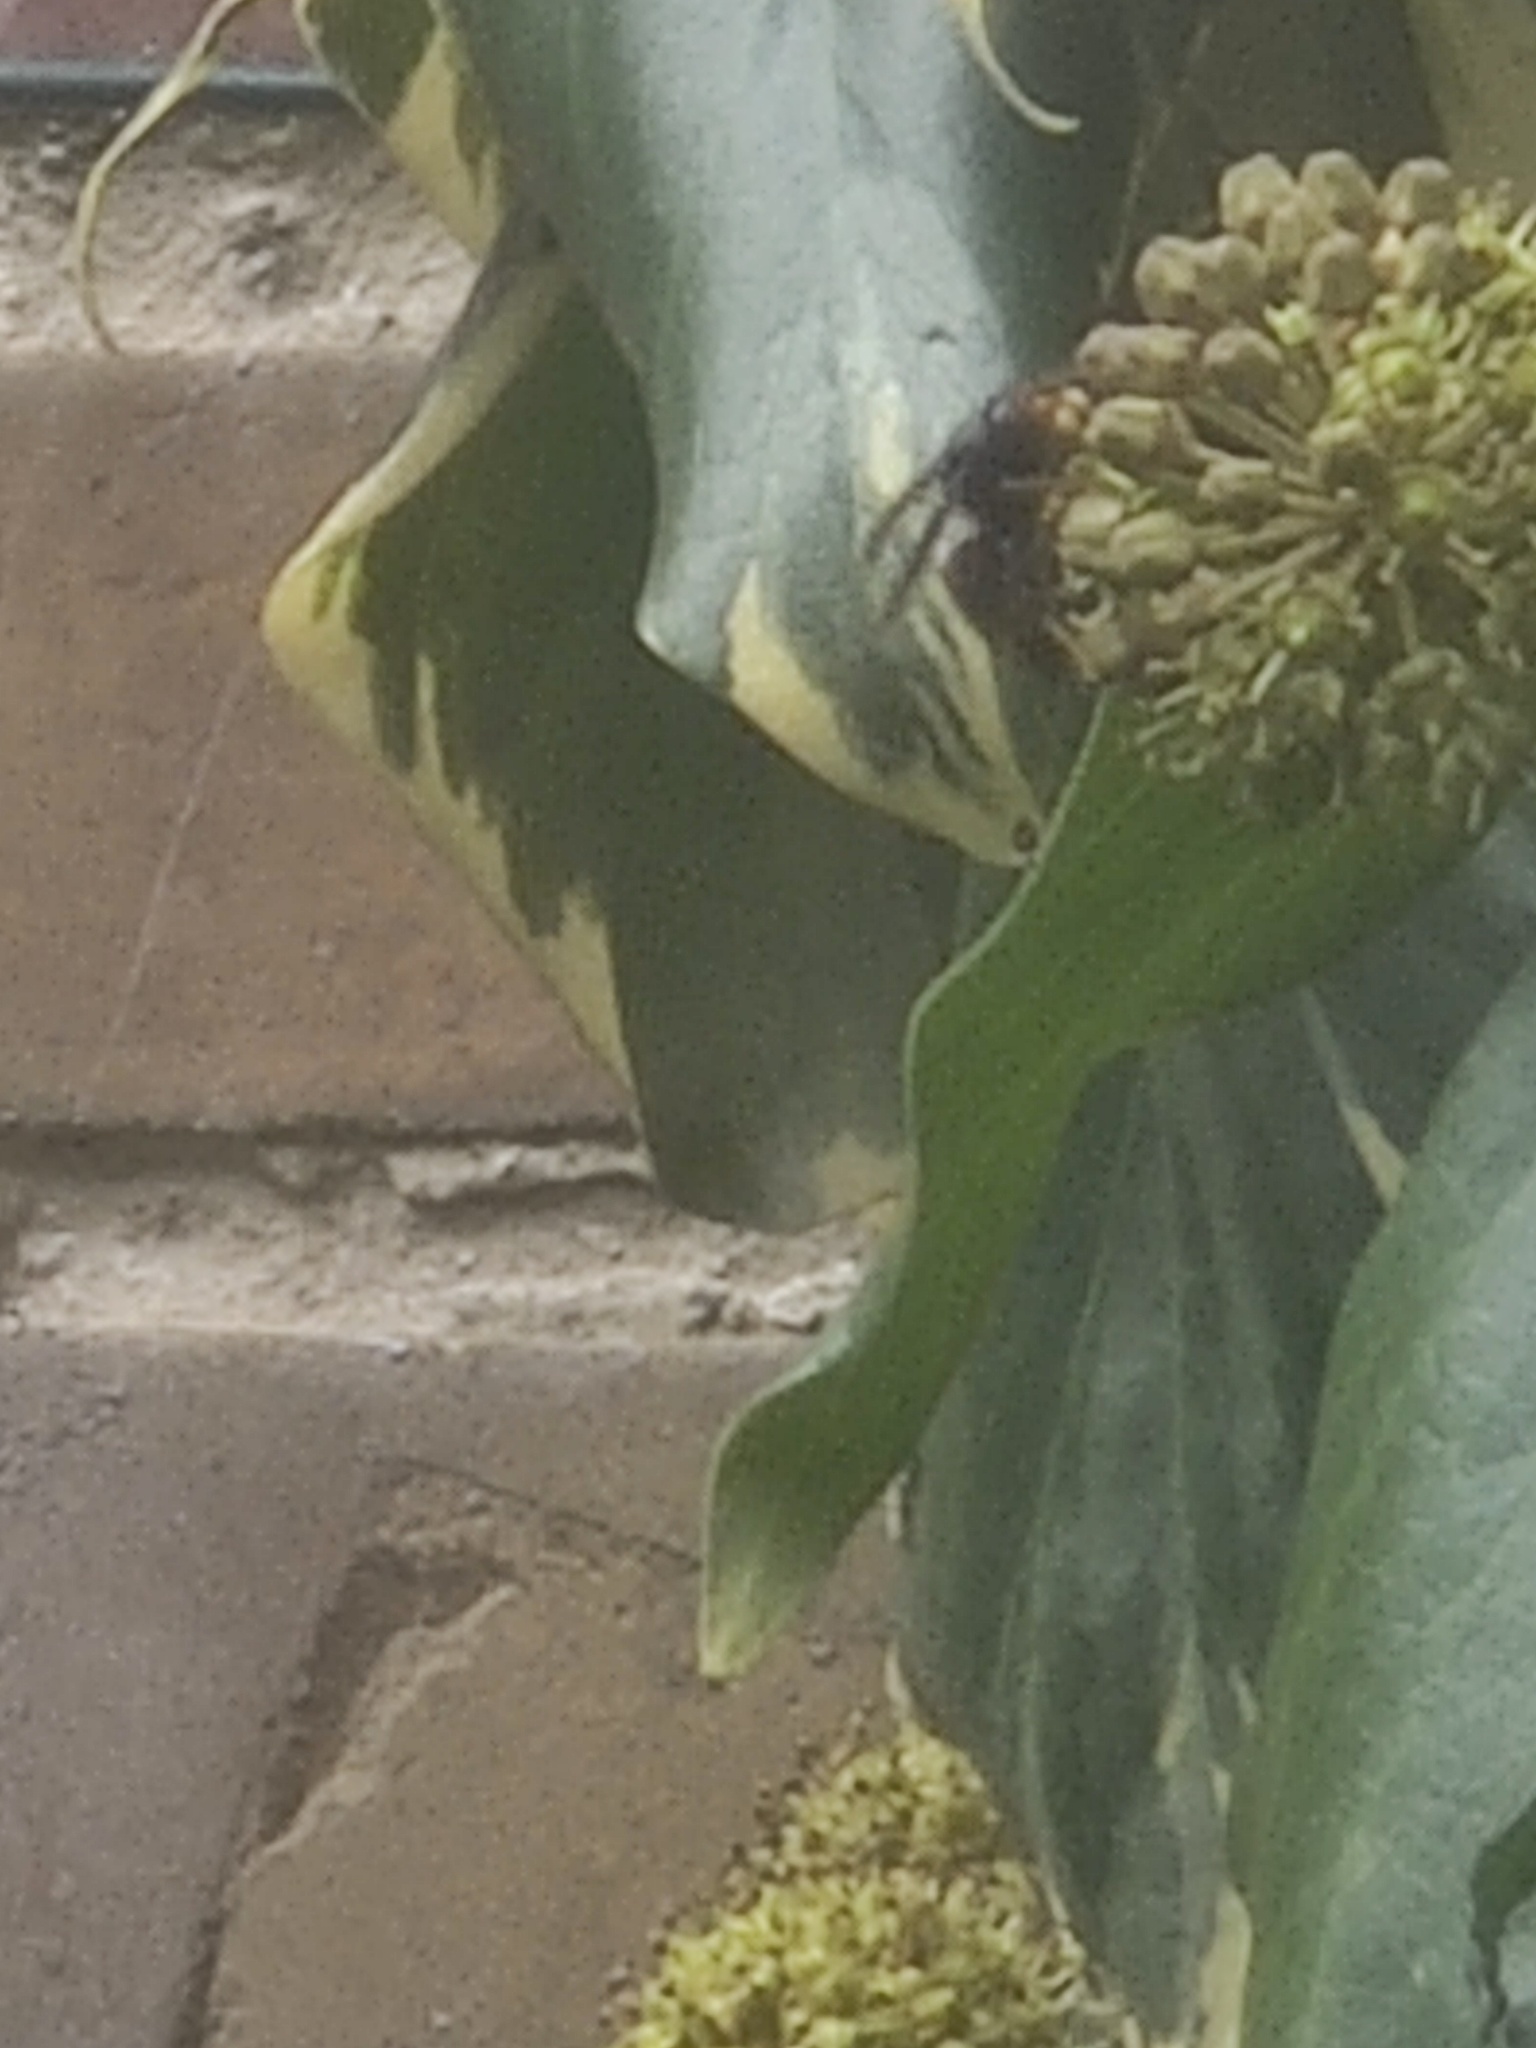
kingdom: Animalia
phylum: Arthropoda
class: Insecta
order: Hymenoptera
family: Vespidae
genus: Vespa
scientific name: Vespa velutina
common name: Asian hornet
